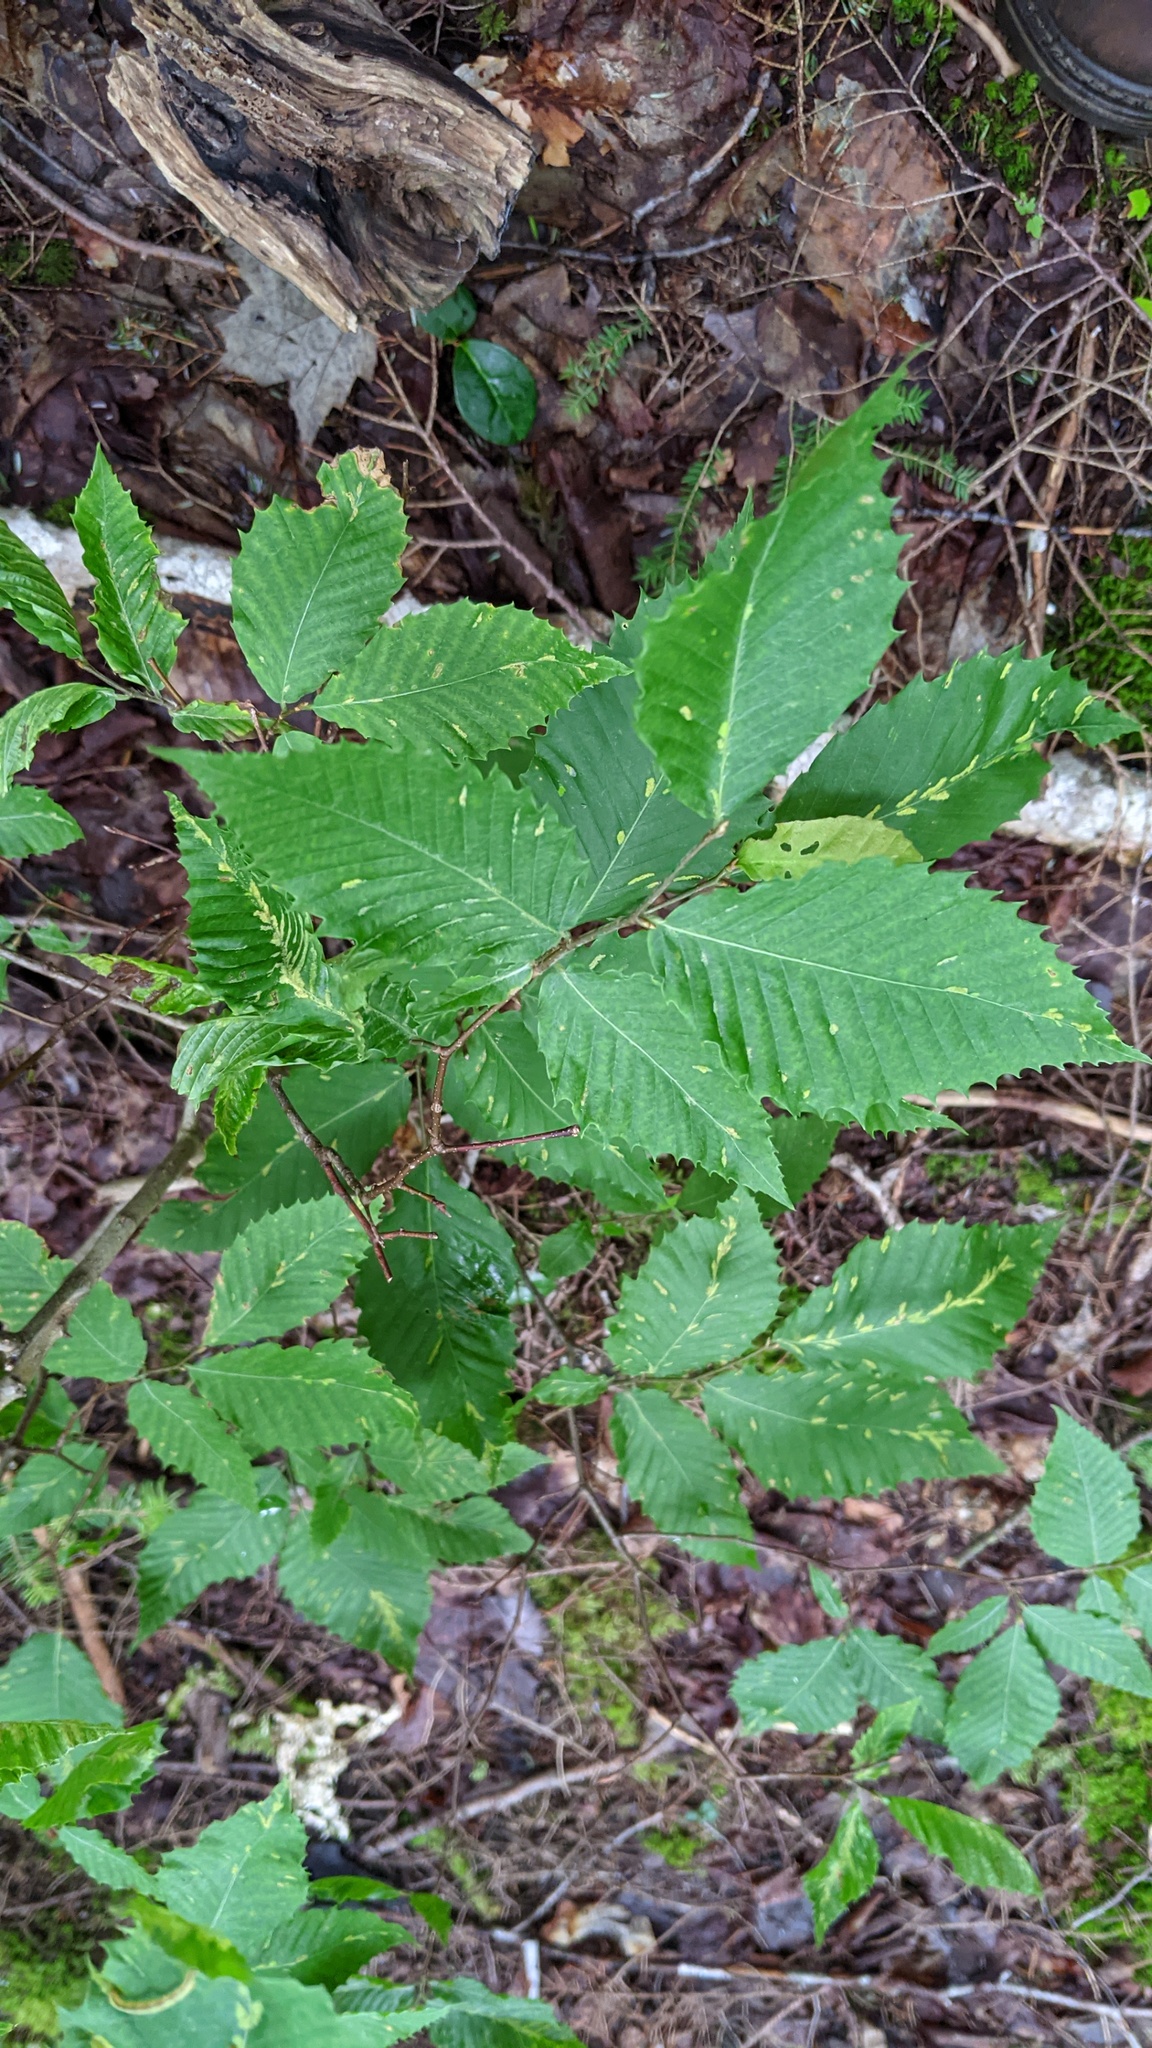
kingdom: Plantae
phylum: Tracheophyta
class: Magnoliopsida
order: Fagales
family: Fagaceae
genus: Fagus
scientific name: Fagus grandifolia
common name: American beech
